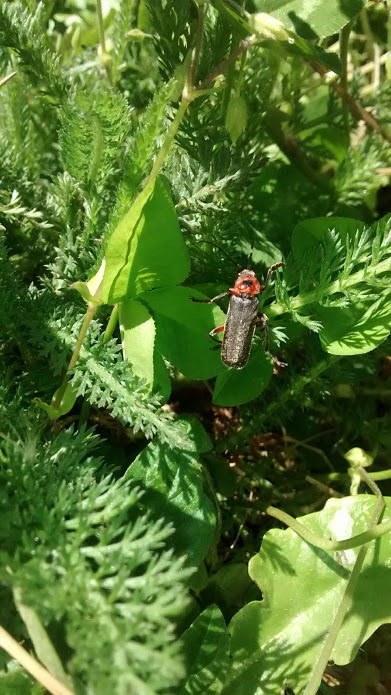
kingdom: Animalia
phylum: Arthropoda
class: Insecta
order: Coleoptera
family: Cantharidae
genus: Cantharis
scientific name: Cantharis rustica
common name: Soldier beetle
